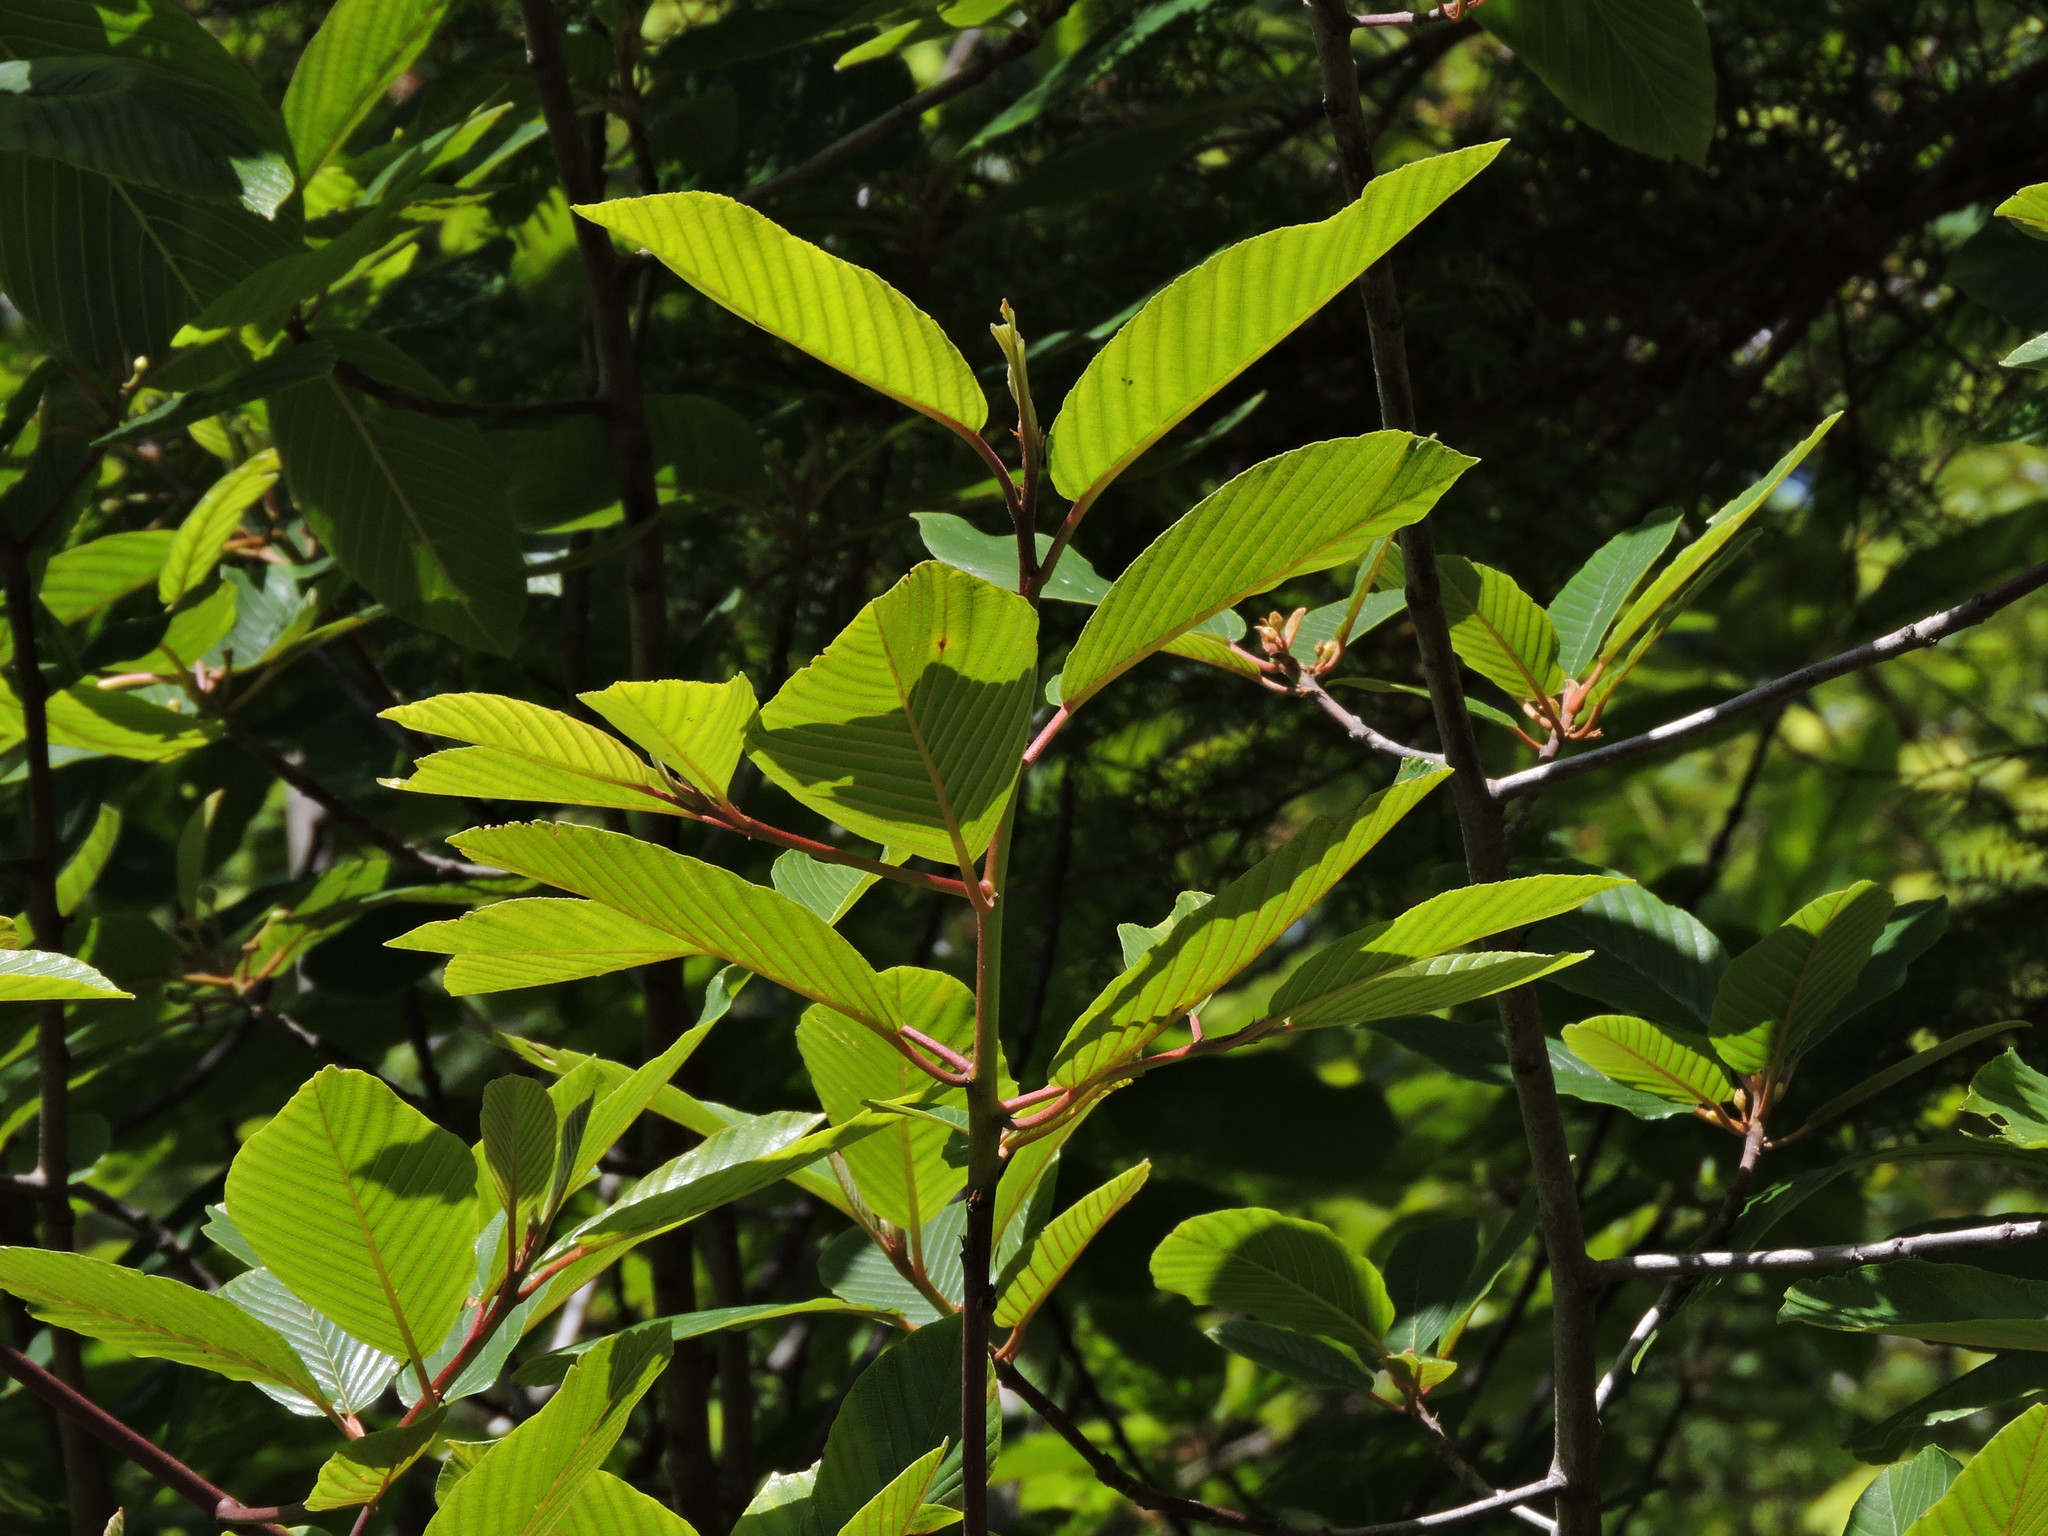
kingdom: Plantae
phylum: Tracheophyta
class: Magnoliopsida
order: Rosales
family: Rhamnaceae
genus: Frangula
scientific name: Frangula purshiana
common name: Cascara buckthorn
